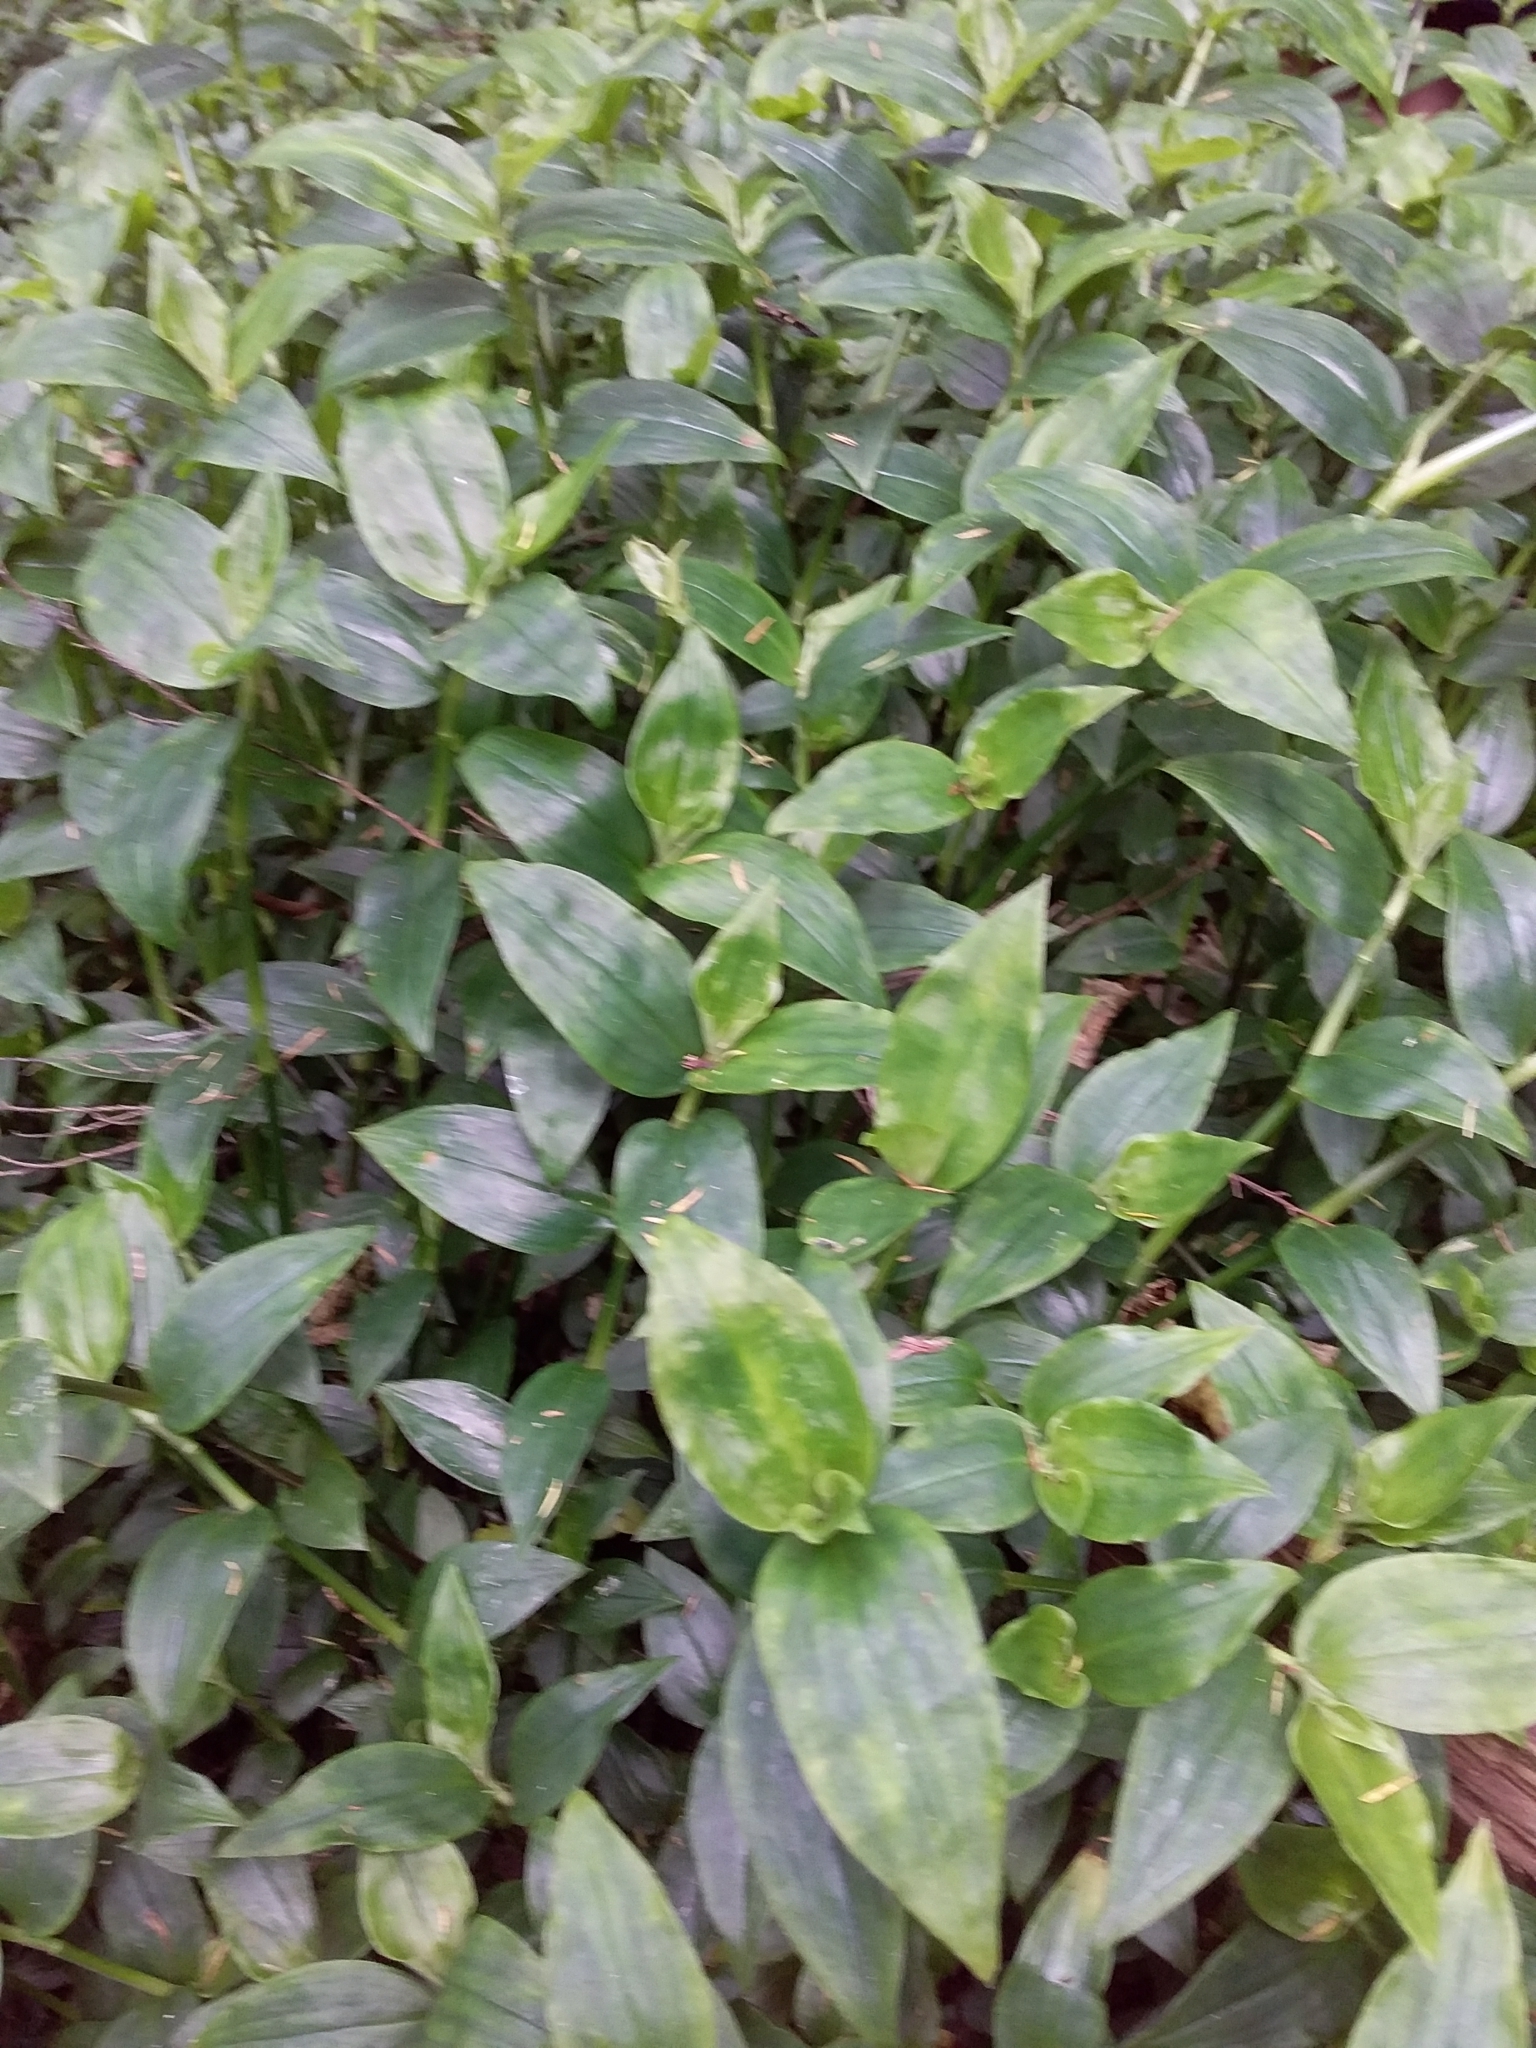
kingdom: Plantae
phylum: Tracheophyta
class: Liliopsida
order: Commelinales
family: Commelinaceae
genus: Tradescantia
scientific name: Tradescantia fluminensis
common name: Wandering-jew
